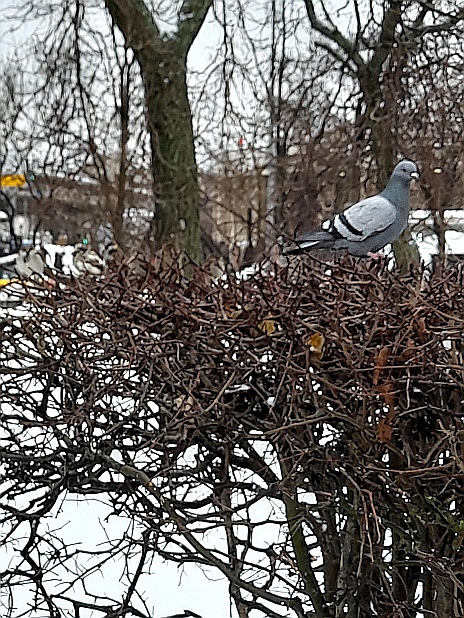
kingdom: Animalia
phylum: Chordata
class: Aves
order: Columbiformes
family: Columbidae
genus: Columba
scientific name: Columba livia
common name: Rock pigeon
